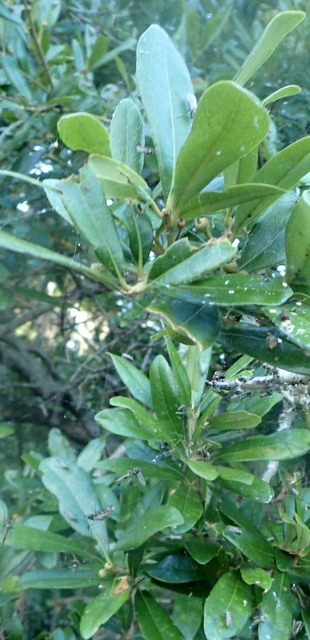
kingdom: Plantae
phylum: Tracheophyta
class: Magnoliopsida
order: Fagales
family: Fagaceae
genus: Quercus
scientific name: Quercus virginiana
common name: Southern live oak
